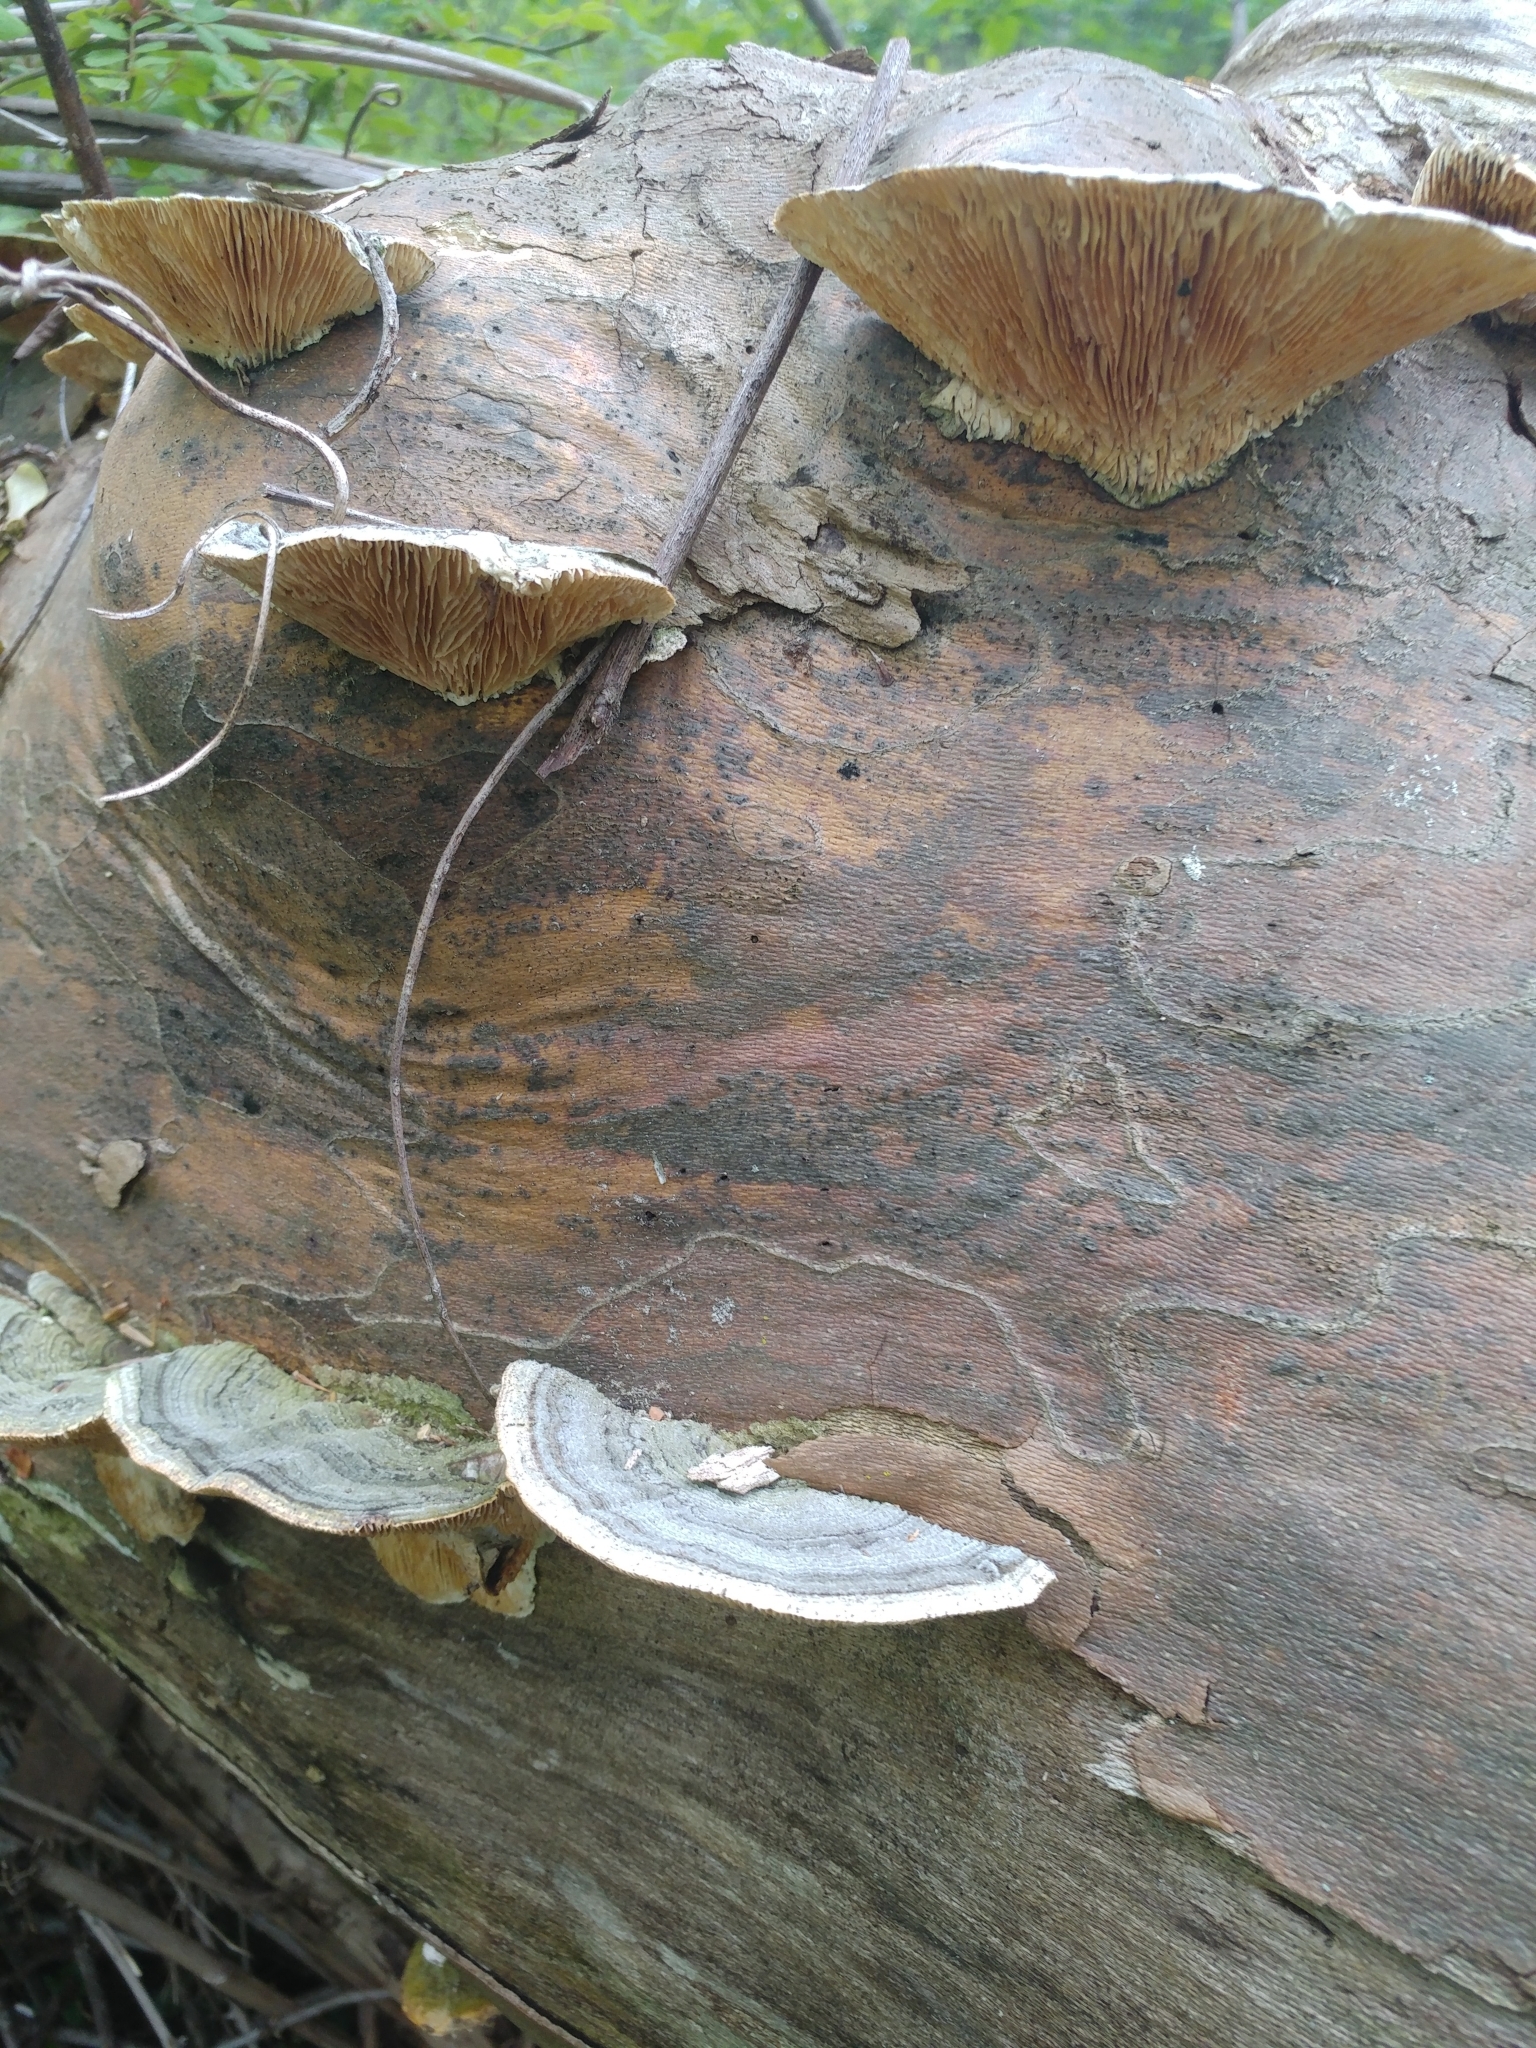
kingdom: Fungi
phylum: Basidiomycota
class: Agaricomycetes
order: Polyporales
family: Polyporaceae
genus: Lenzites
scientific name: Lenzites betulinus
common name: Birch mazegill
